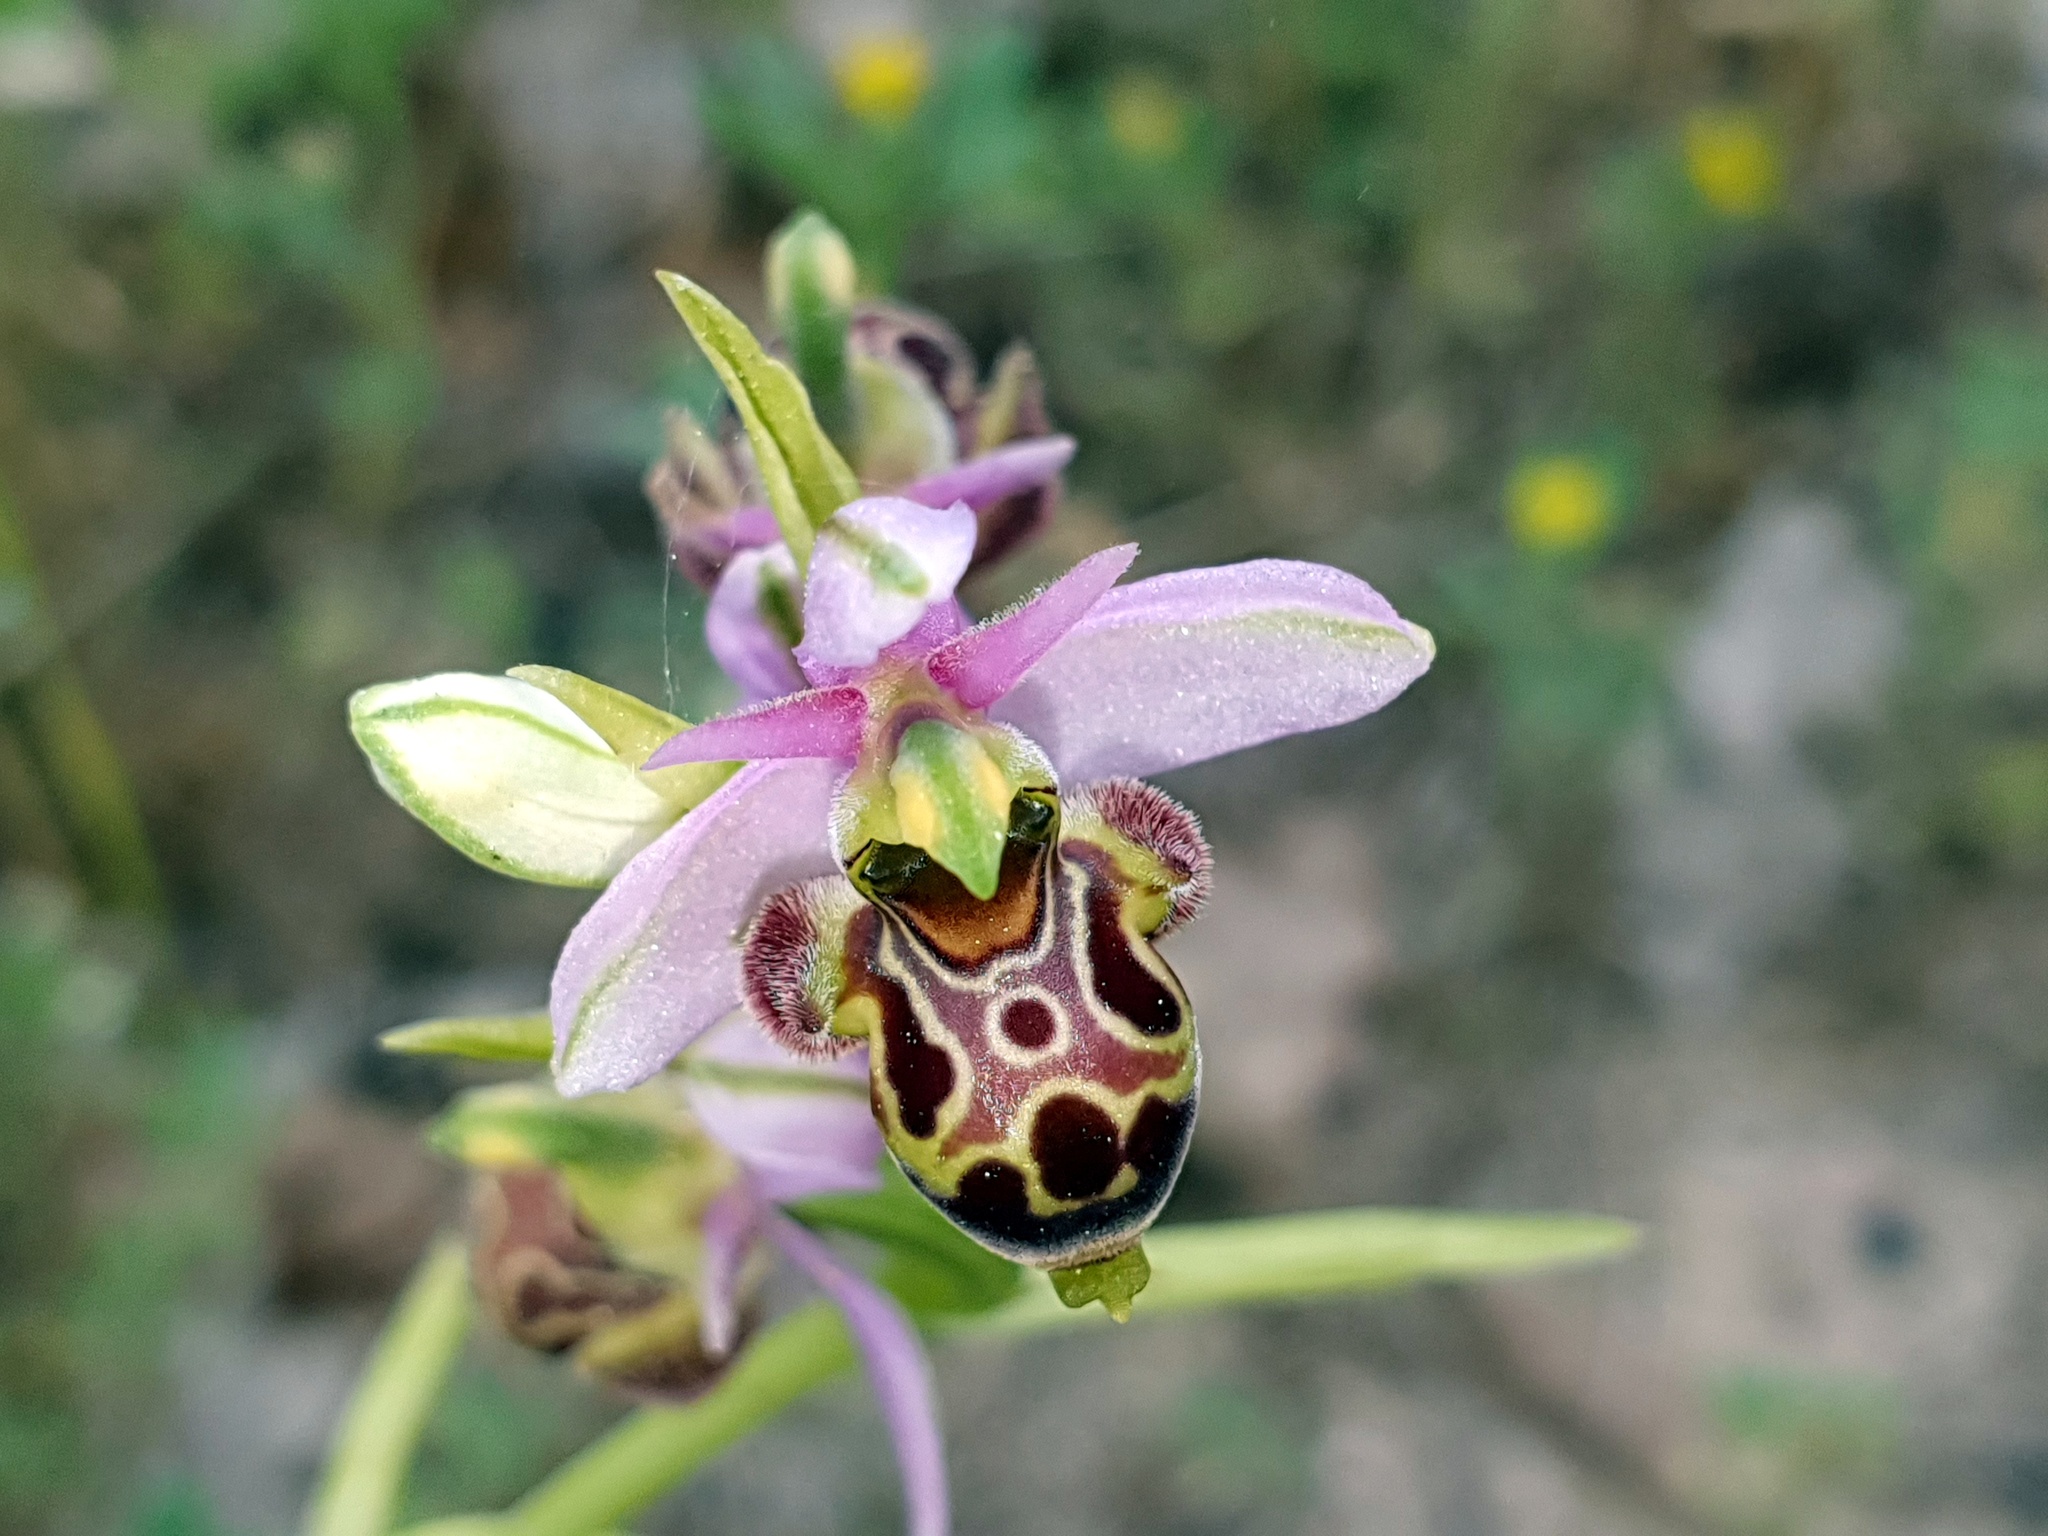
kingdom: Plantae
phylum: Tracheophyta
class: Liliopsida
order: Asparagales
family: Orchidaceae
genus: Ophrys
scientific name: Ophrys scolopax
